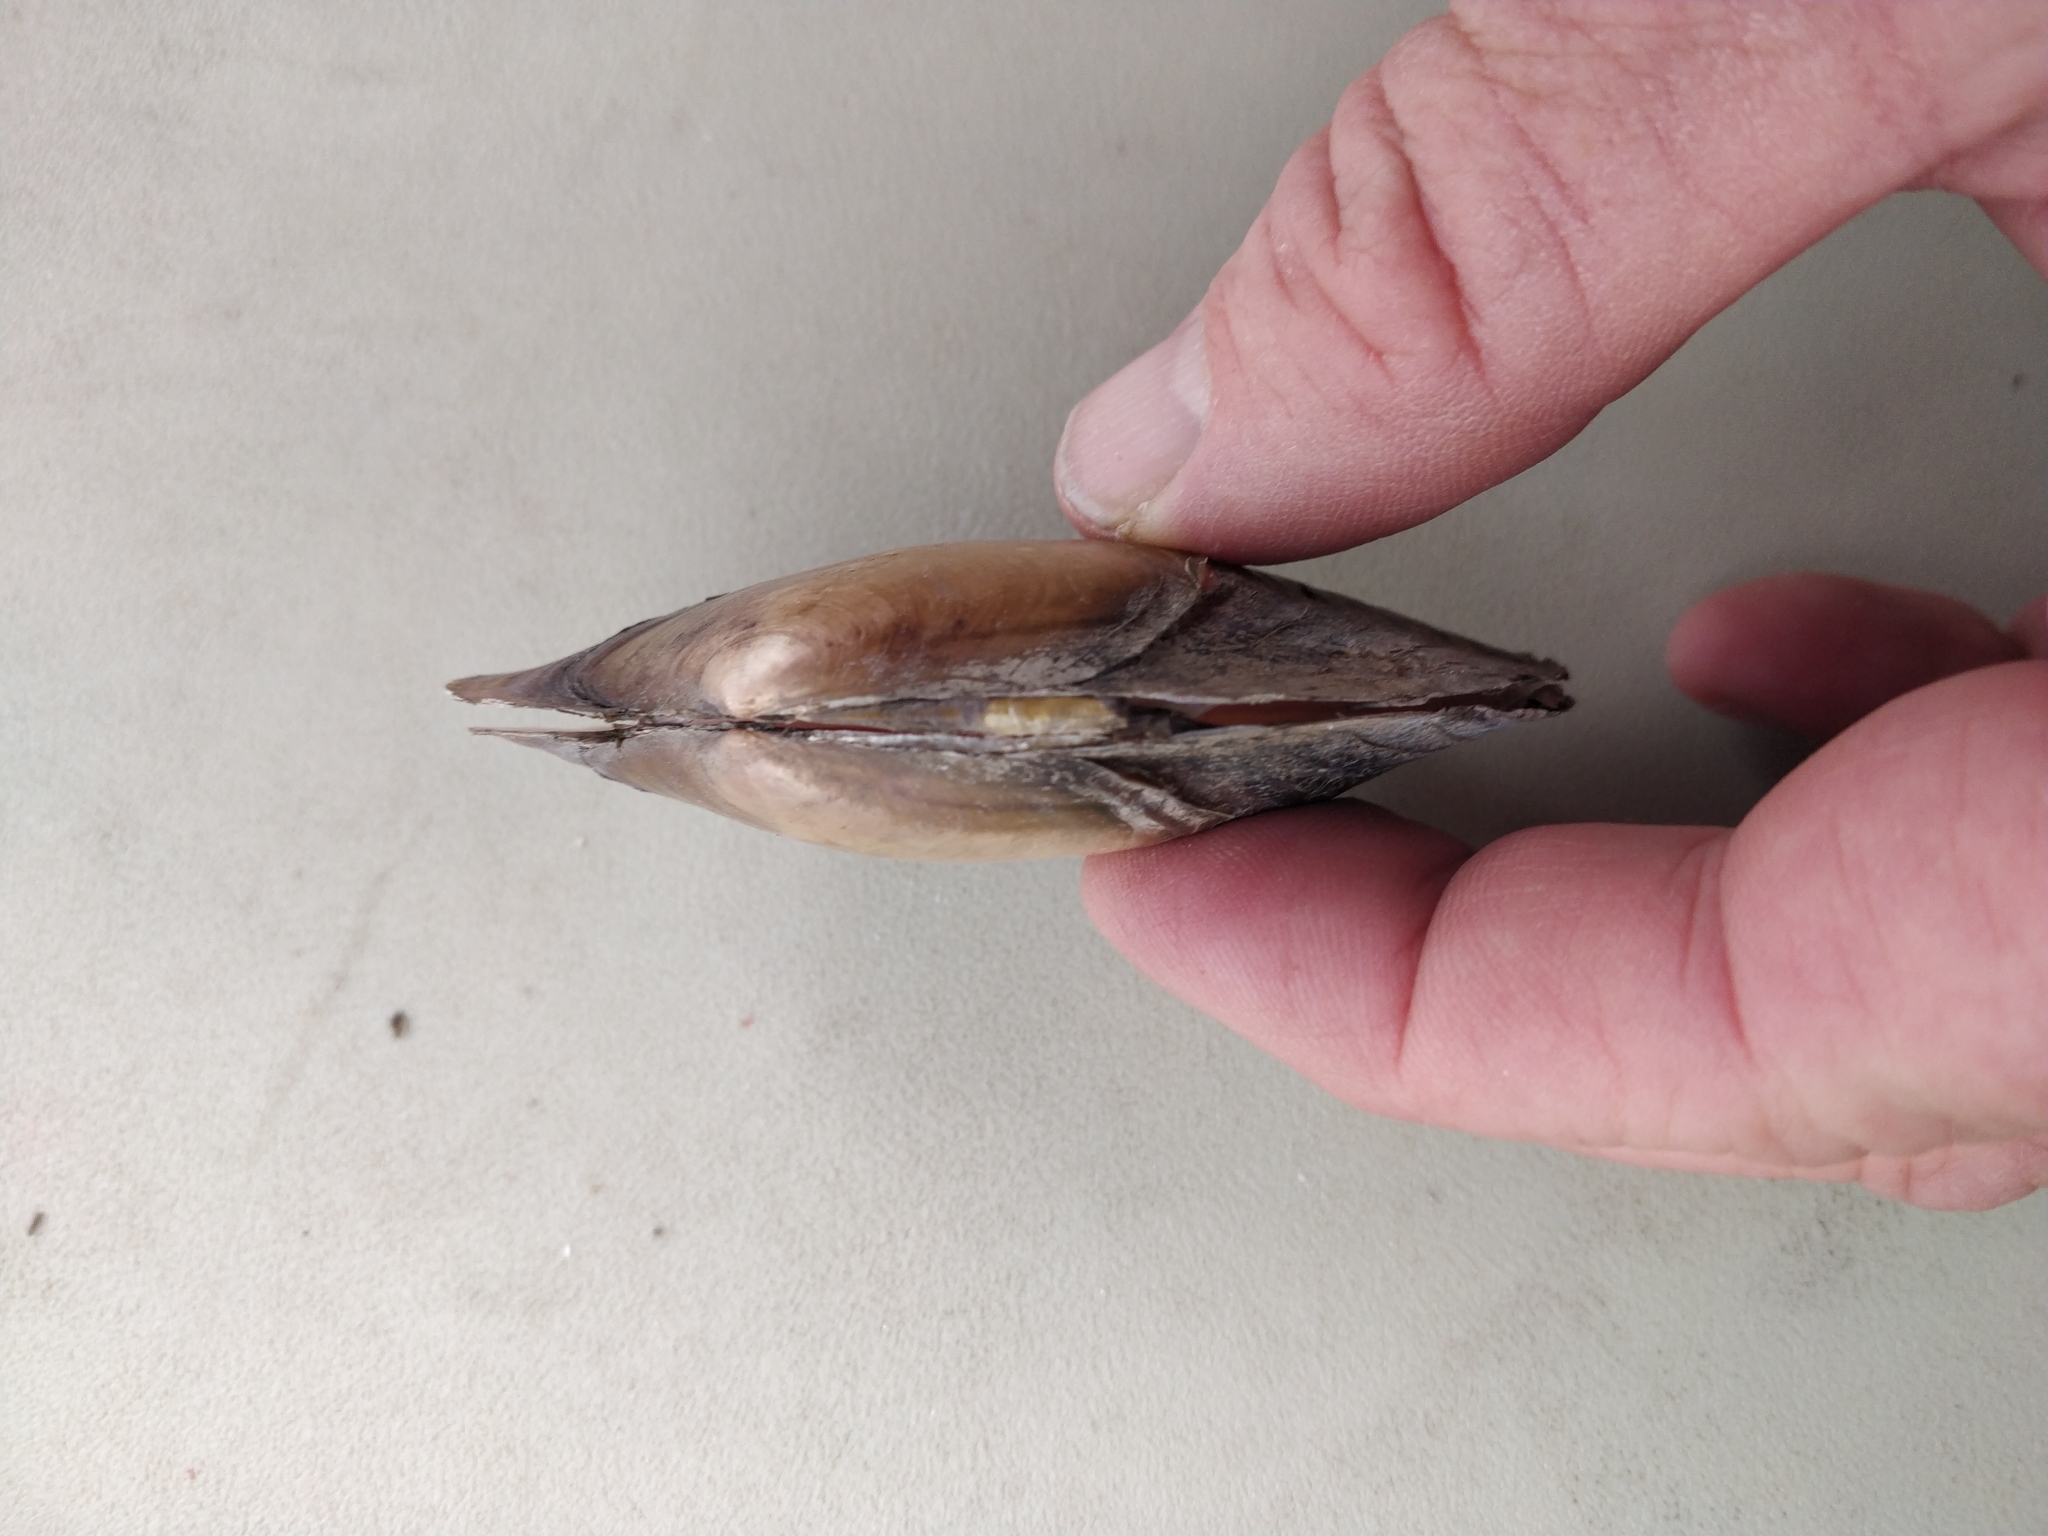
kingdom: Animalia
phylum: Mollusca
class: Bivalvia
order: Unionida
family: Unionidae
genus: Potamilus
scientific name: Potamilus ohiensis
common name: Pink papershell
